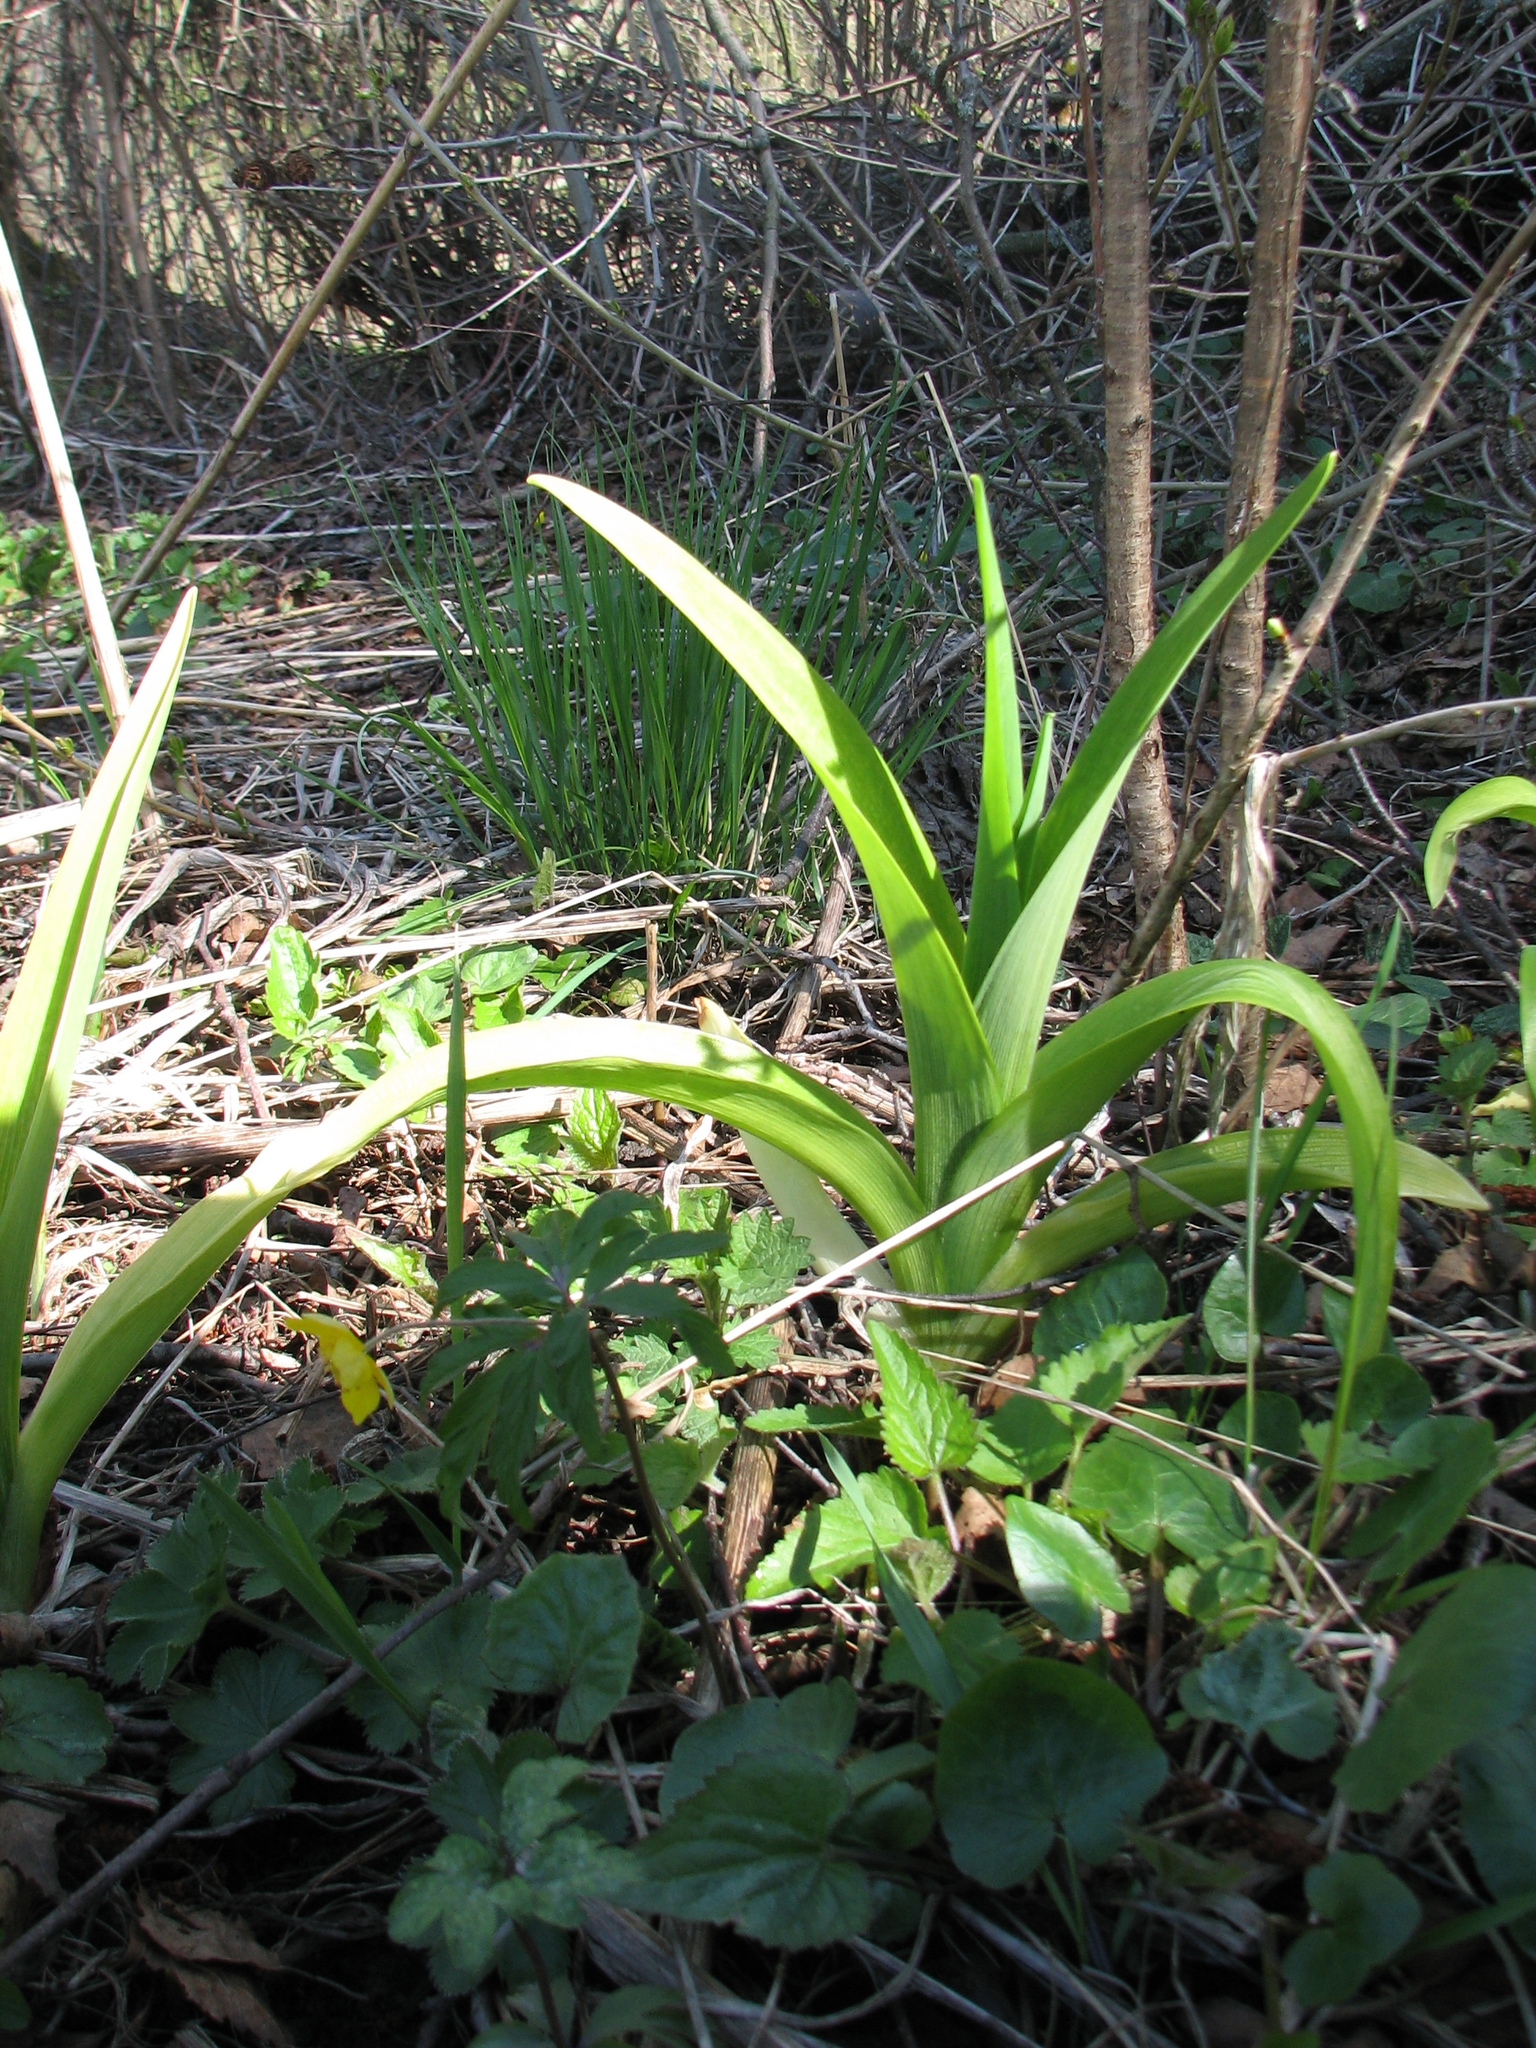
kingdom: Plantae
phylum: Tracheophyta
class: Liliopsida
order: Asparagales
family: Asphodelaceae
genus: Hemerocallis
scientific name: Hemerocallis fulva
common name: Orange day-lily
